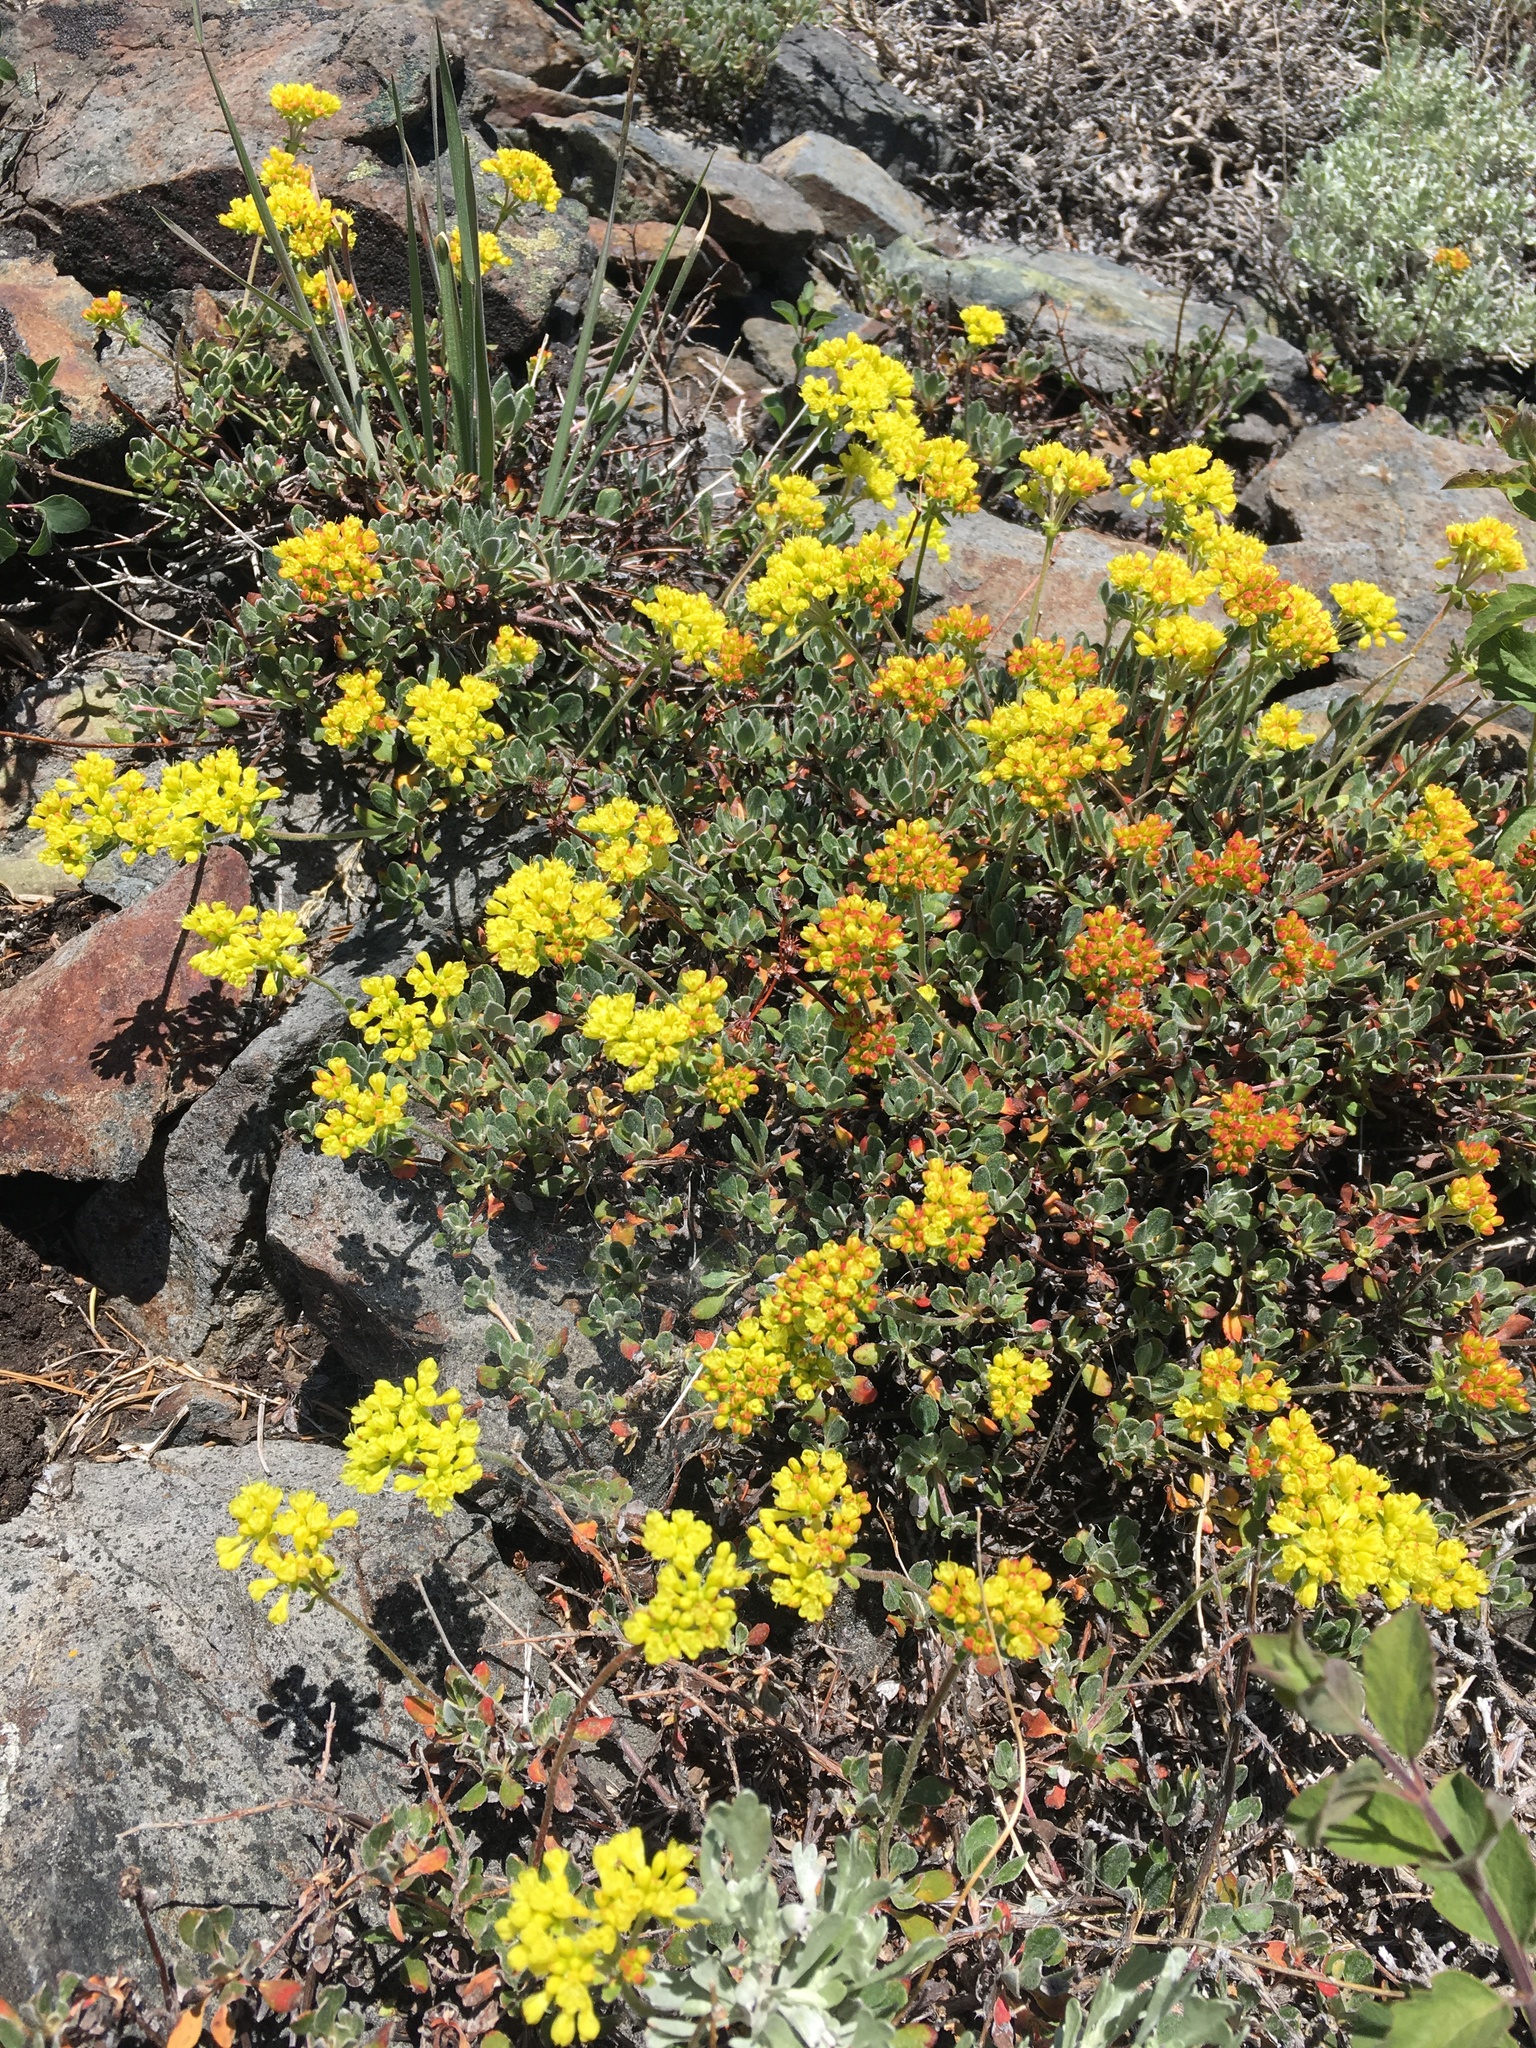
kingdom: Plantae
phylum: Tracheophyta
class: Magnoliopsida
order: Caryophyllales
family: Polygonaceae
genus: Eriogonum
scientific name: Eriogonum umbellatum
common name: Sulfur-buckwheat
